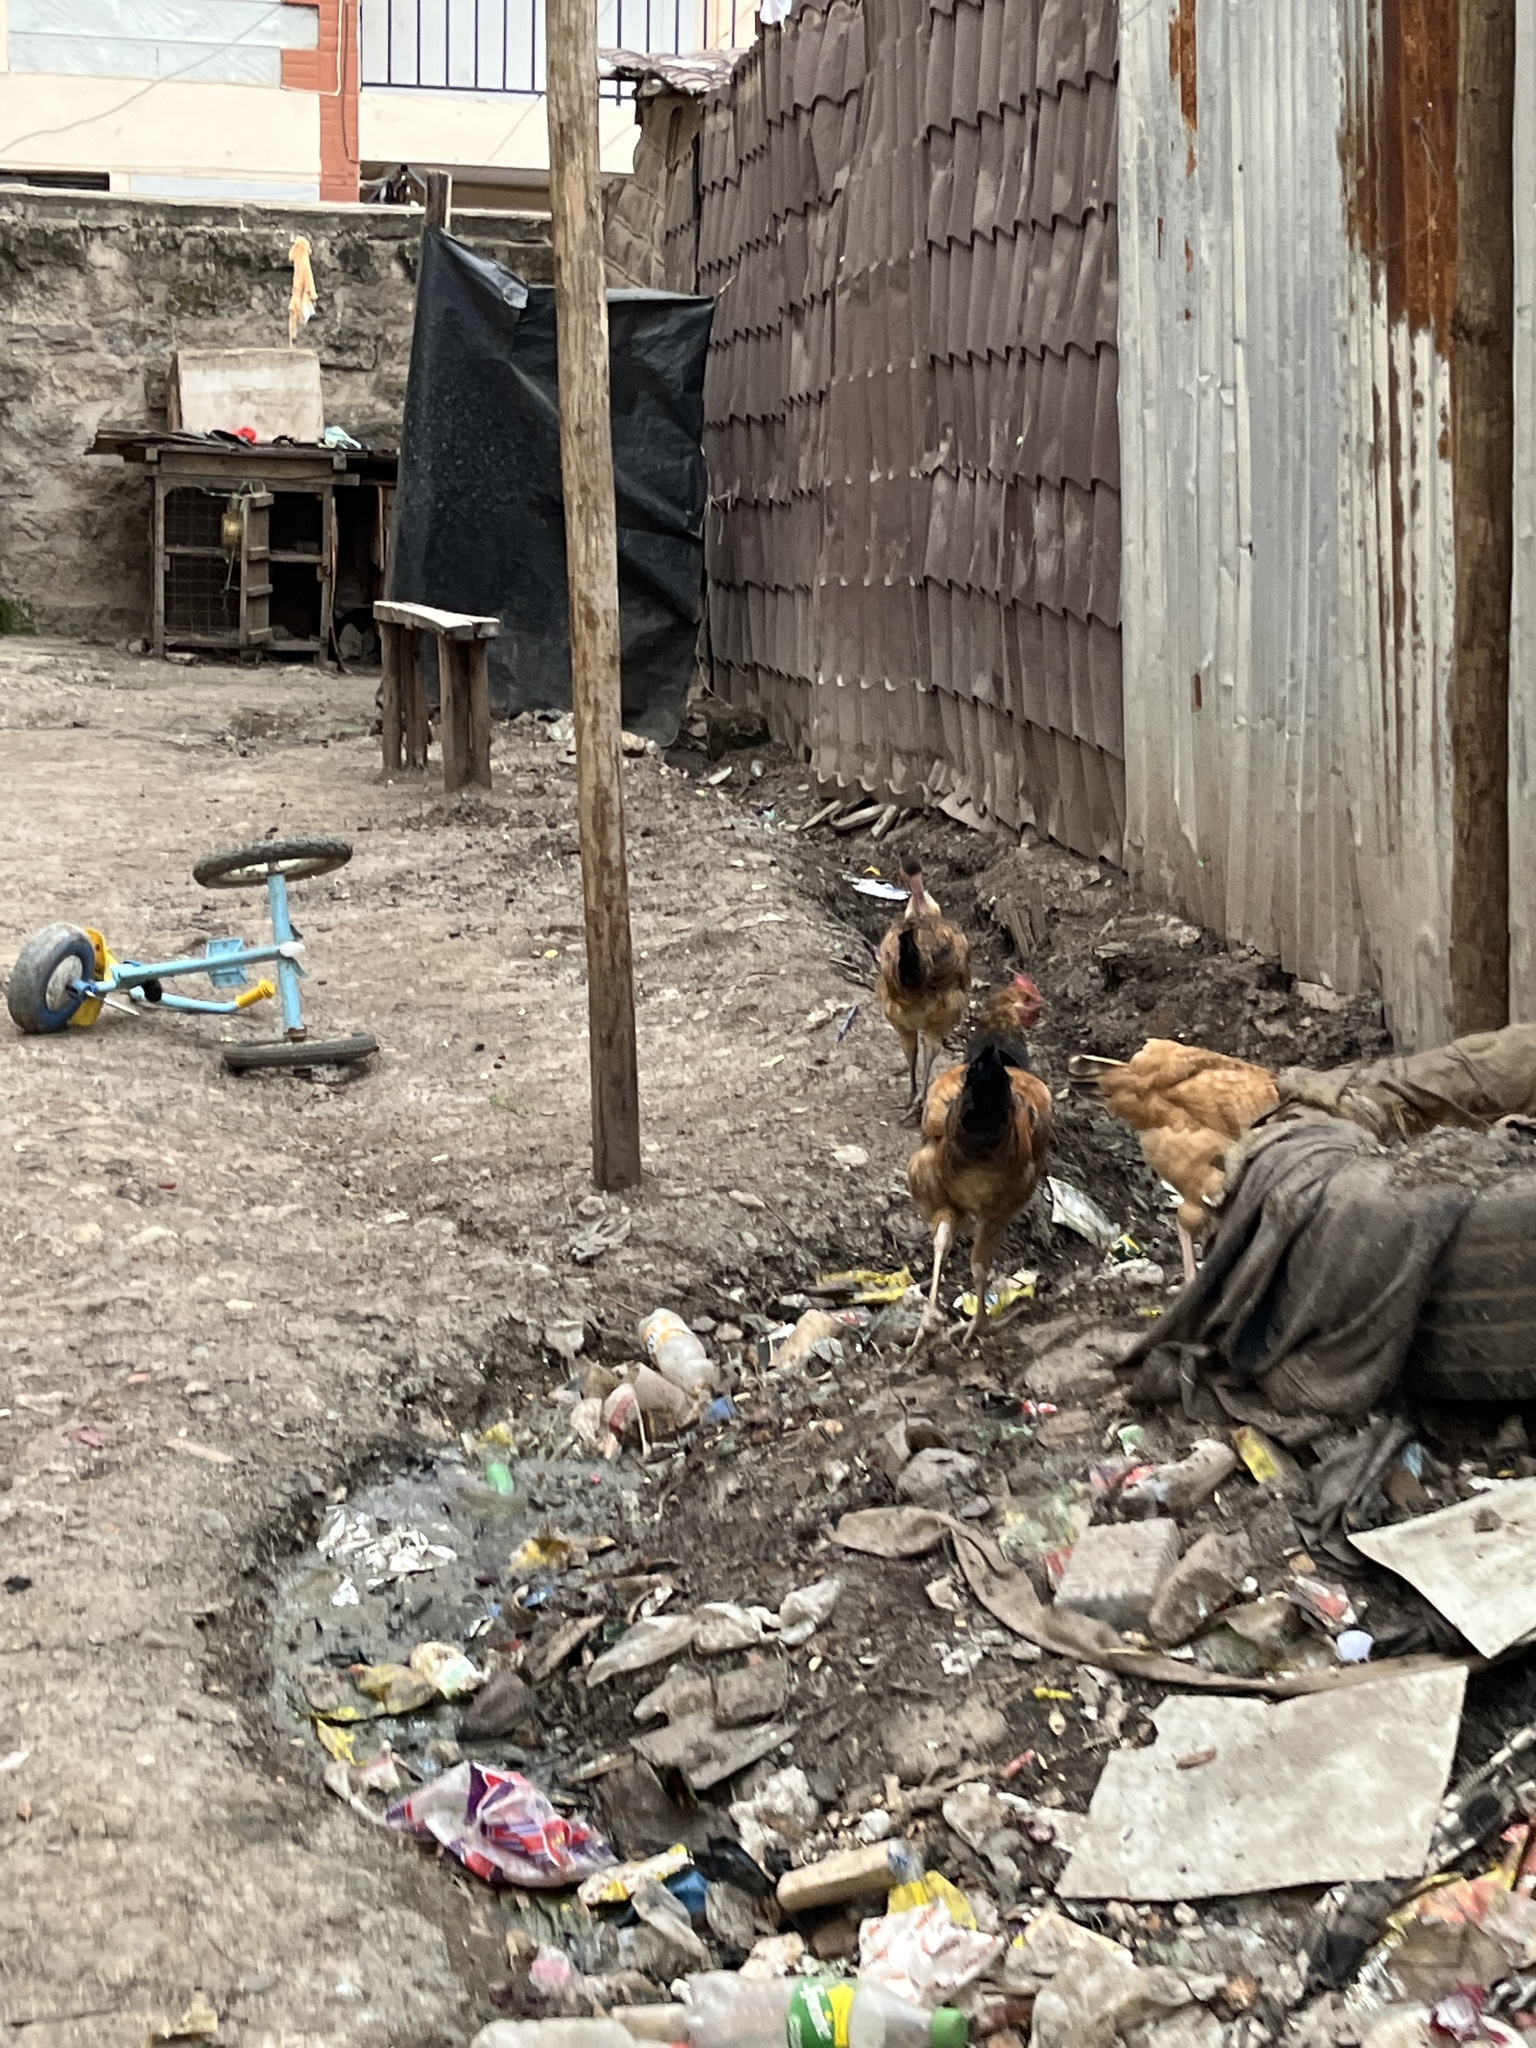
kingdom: Animalia
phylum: Chordata
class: Aves
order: Galliformes
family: Phasianidae
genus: Gallus
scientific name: Gallus gallus
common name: Red junglefowl
